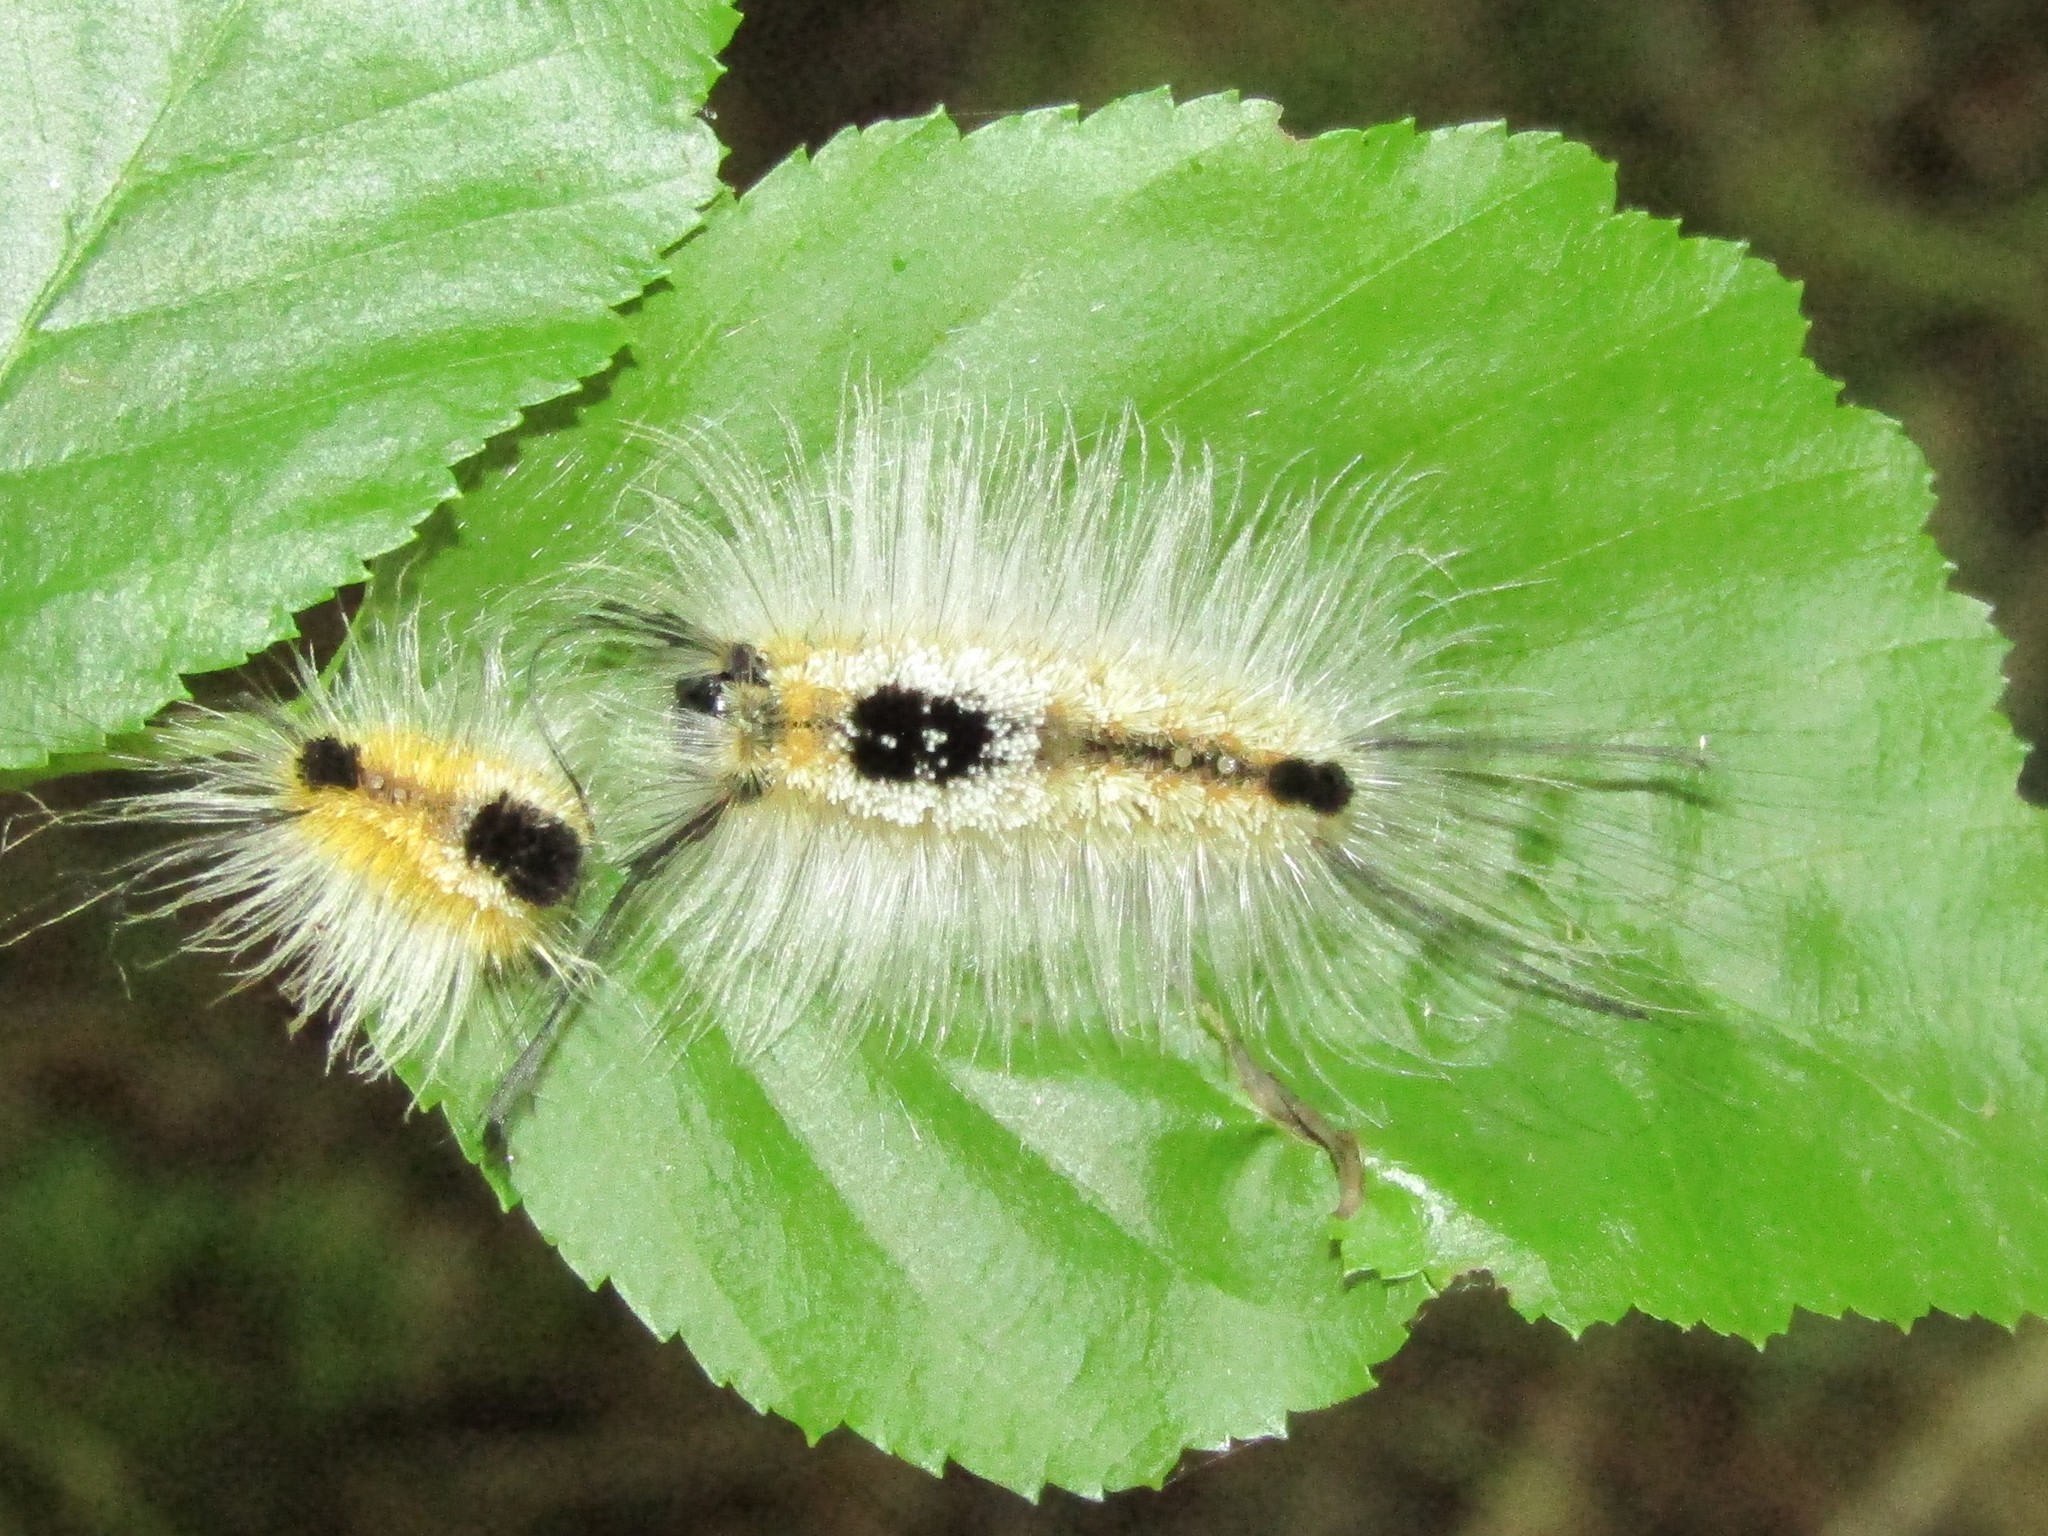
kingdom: Animalia
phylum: Arthropoda
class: Insecta
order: Lepidoptera
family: Erebidae
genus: Dasychira
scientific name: Dasychira basiflava
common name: Yellow-based tussock moth
